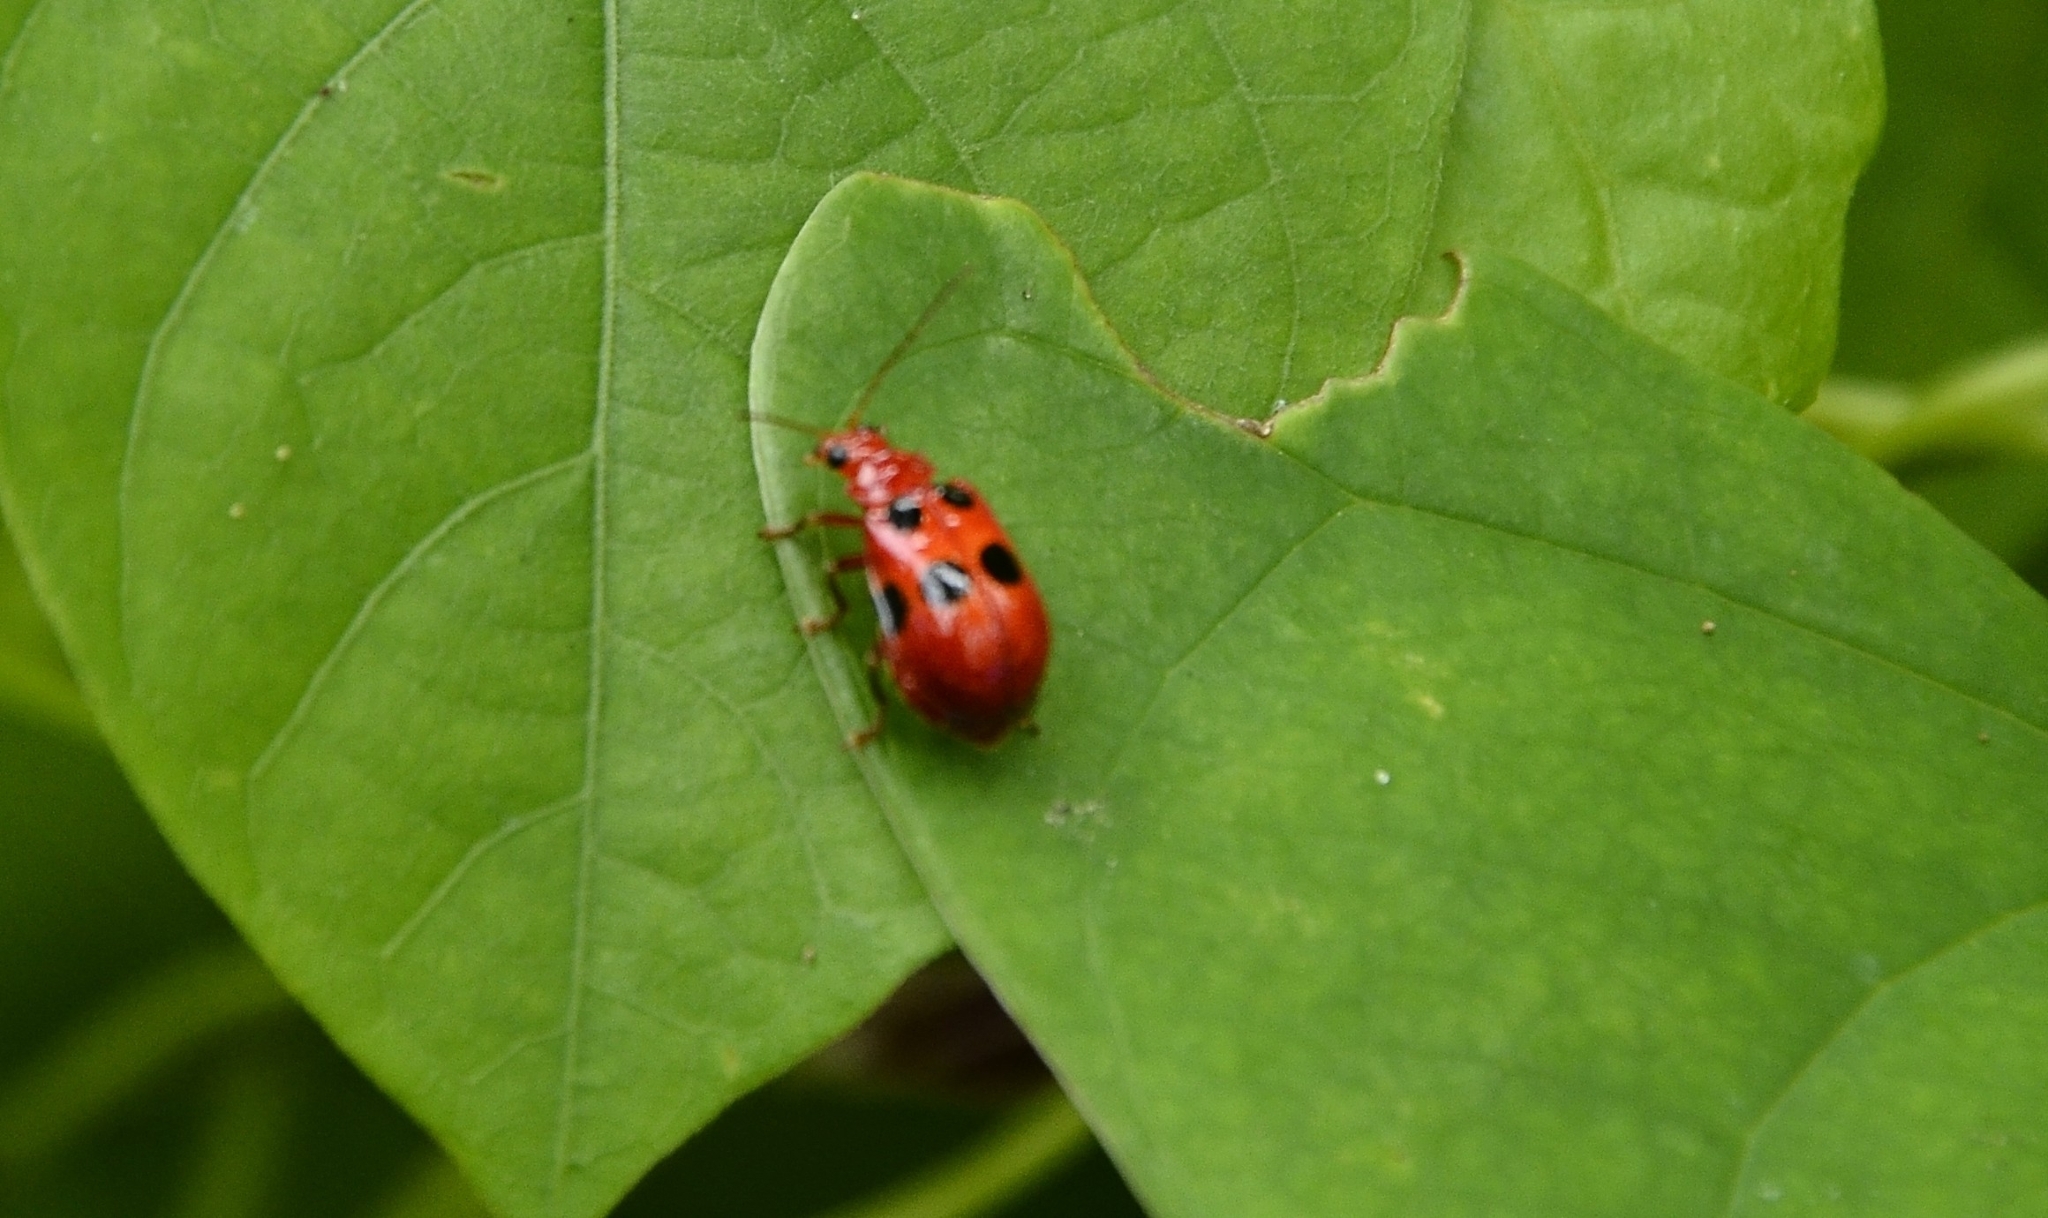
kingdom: Animalia
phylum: Arthropoda
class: Insecta
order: Coleoptera
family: Chrysomelidae
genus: Aulacophora
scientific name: Aulacophora
